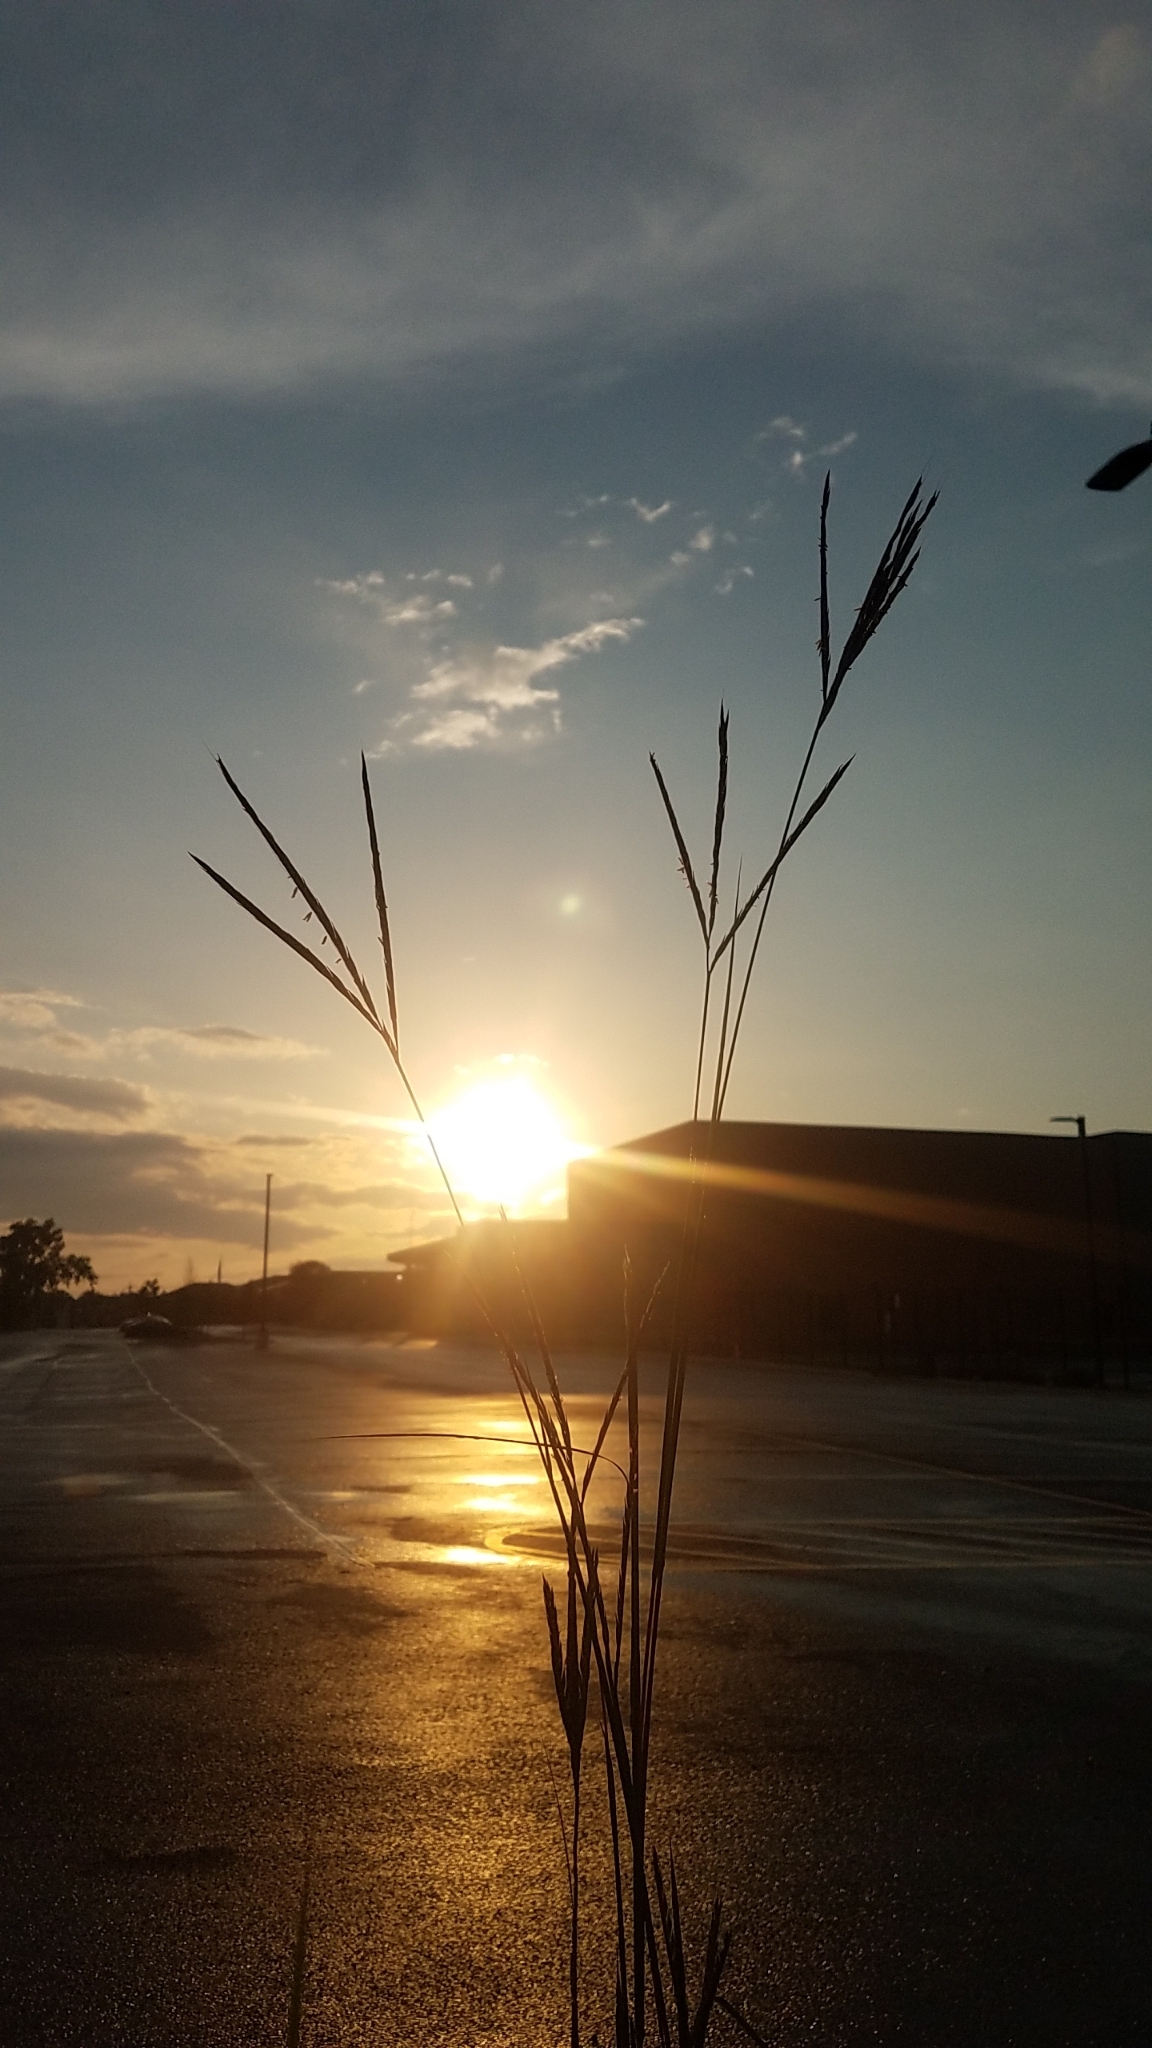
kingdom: Plantae
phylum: Tracheophyta
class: Liliopsida
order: Poales
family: Poaceae
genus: Andropogon
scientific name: Andropogon gerardi
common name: Big bluestem
